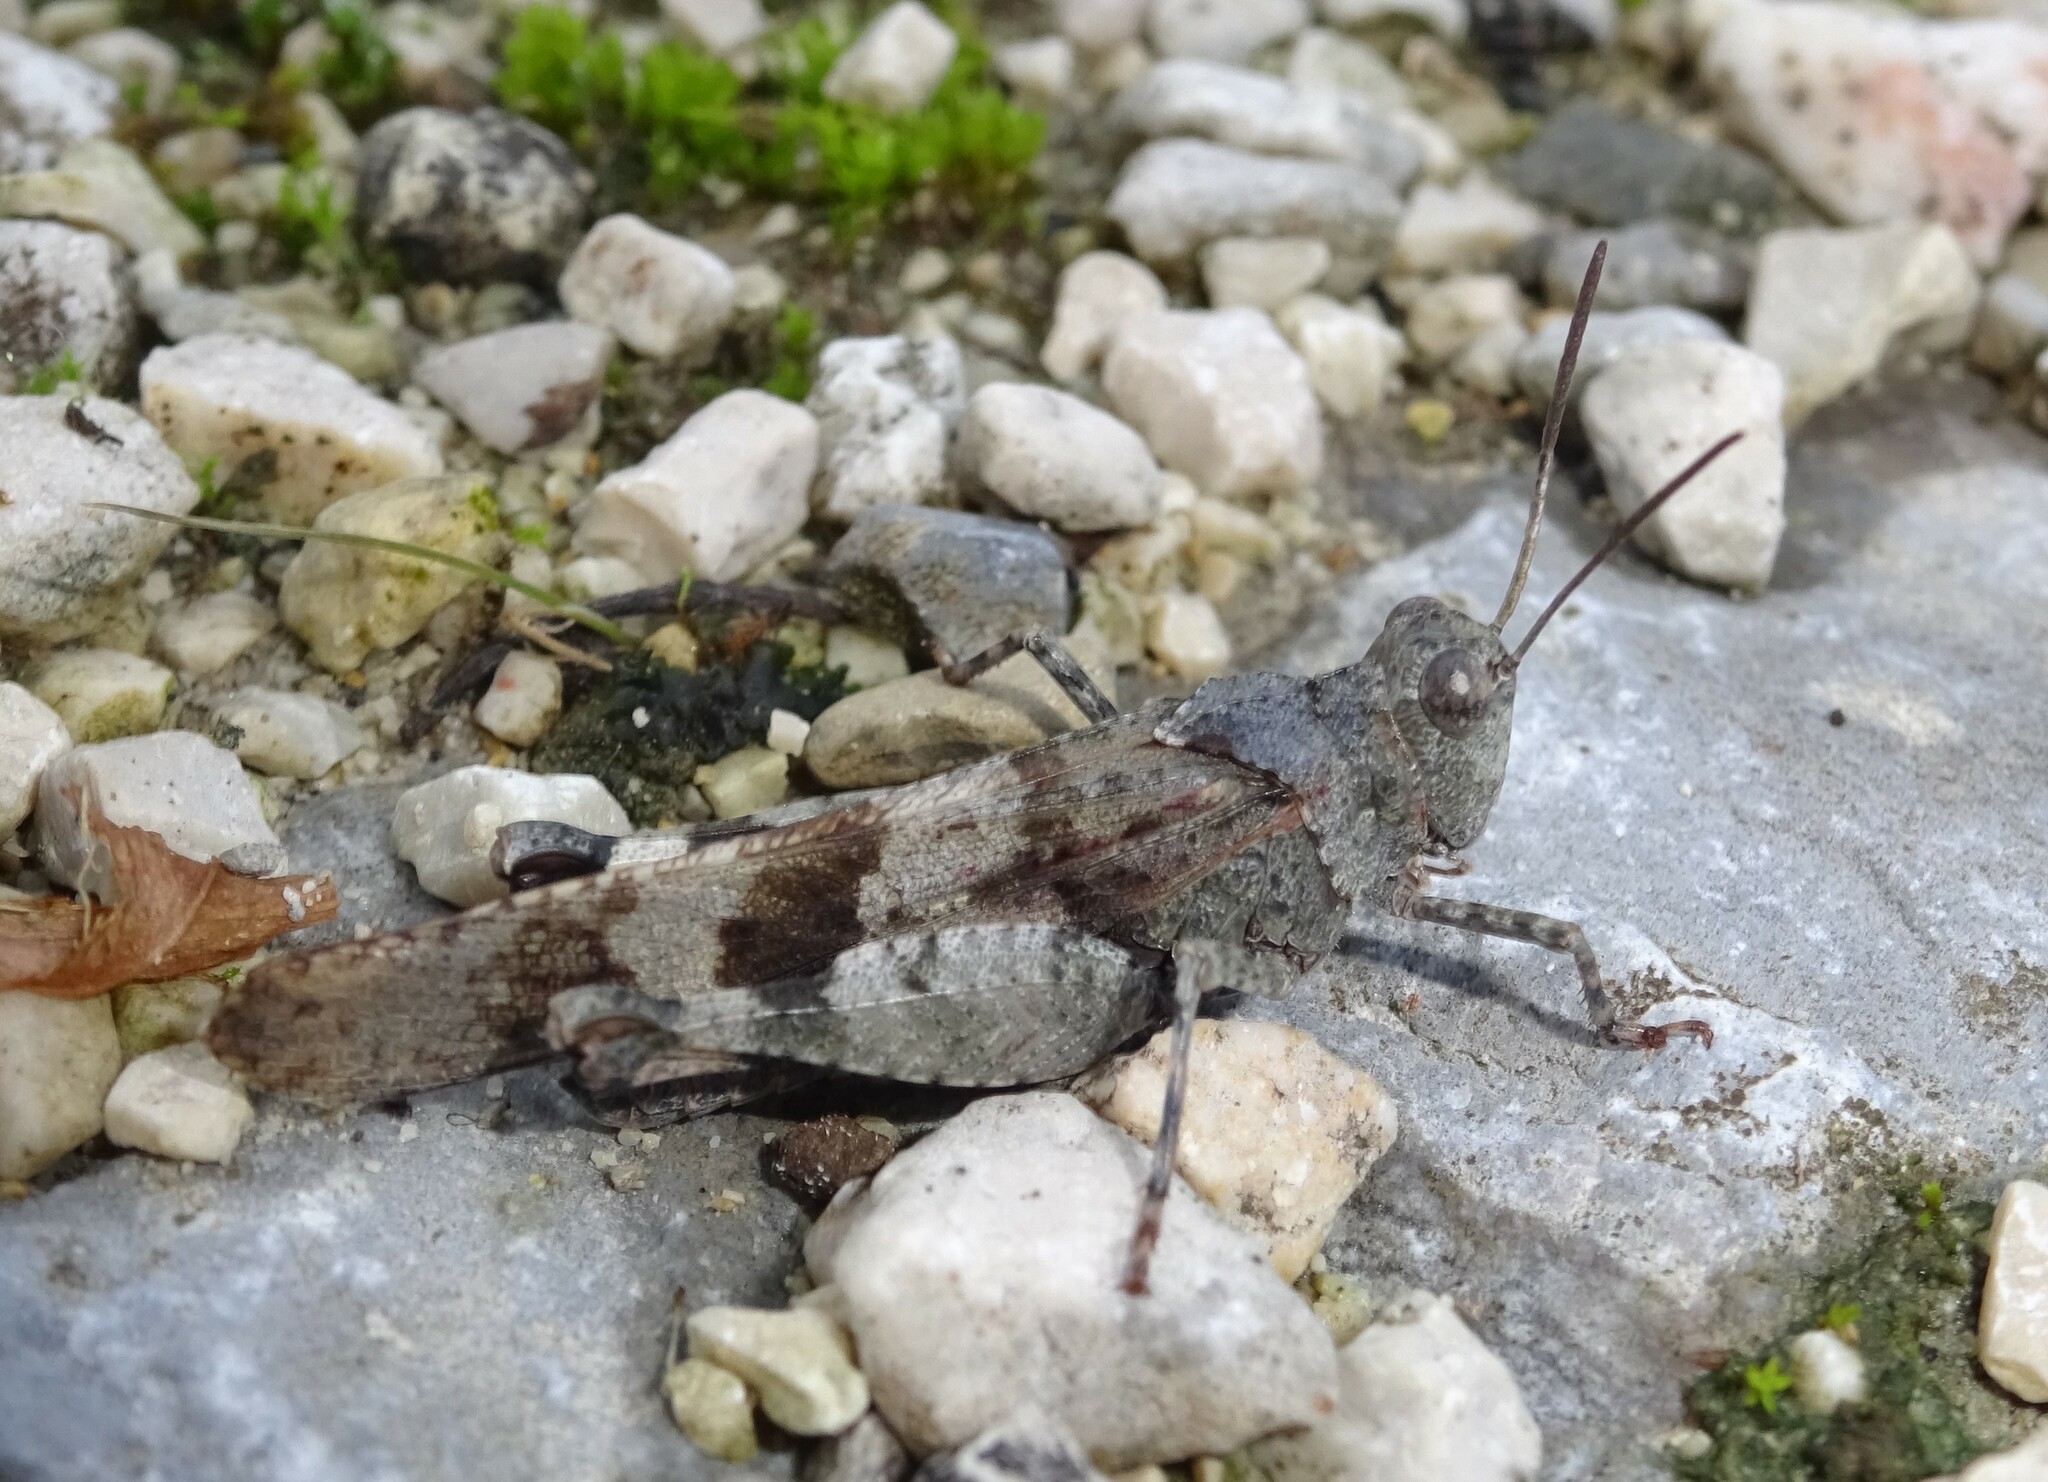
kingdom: Animalia
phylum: Arthropoda
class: Insecta
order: Orthoptera
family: Acrididae
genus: Oedipoda
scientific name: Oedipoda caerulescens
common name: Blue-winged grasshopper
